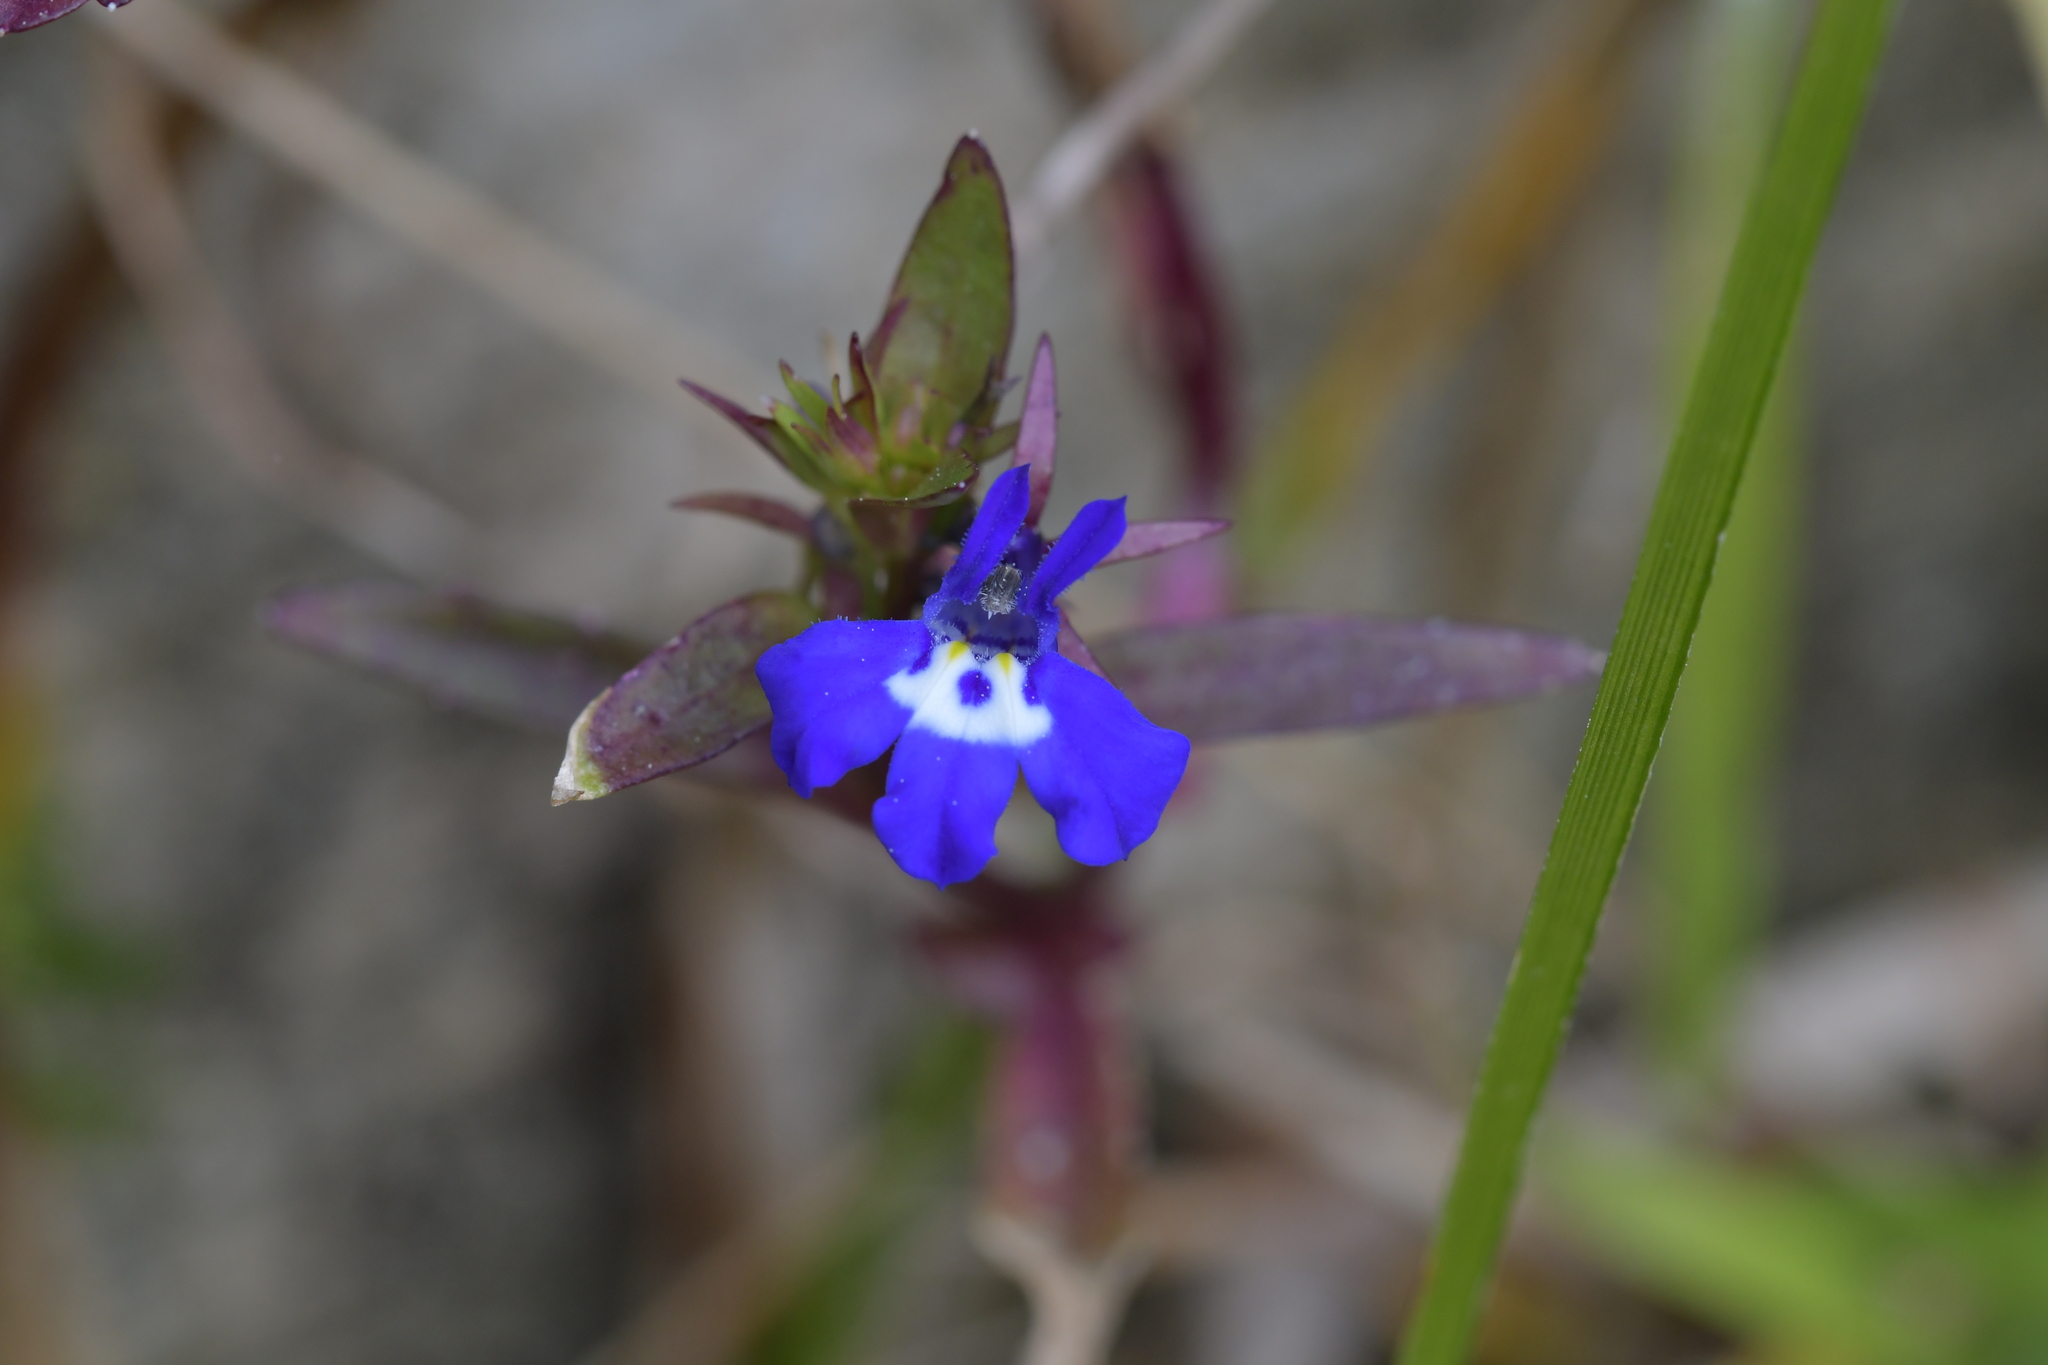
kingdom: Plantae
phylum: Tracheophyta
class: Magnoliopsida
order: Asterales
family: Campanulaceae
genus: Lobelia
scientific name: Lobelia erinus
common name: Edging lobelia
